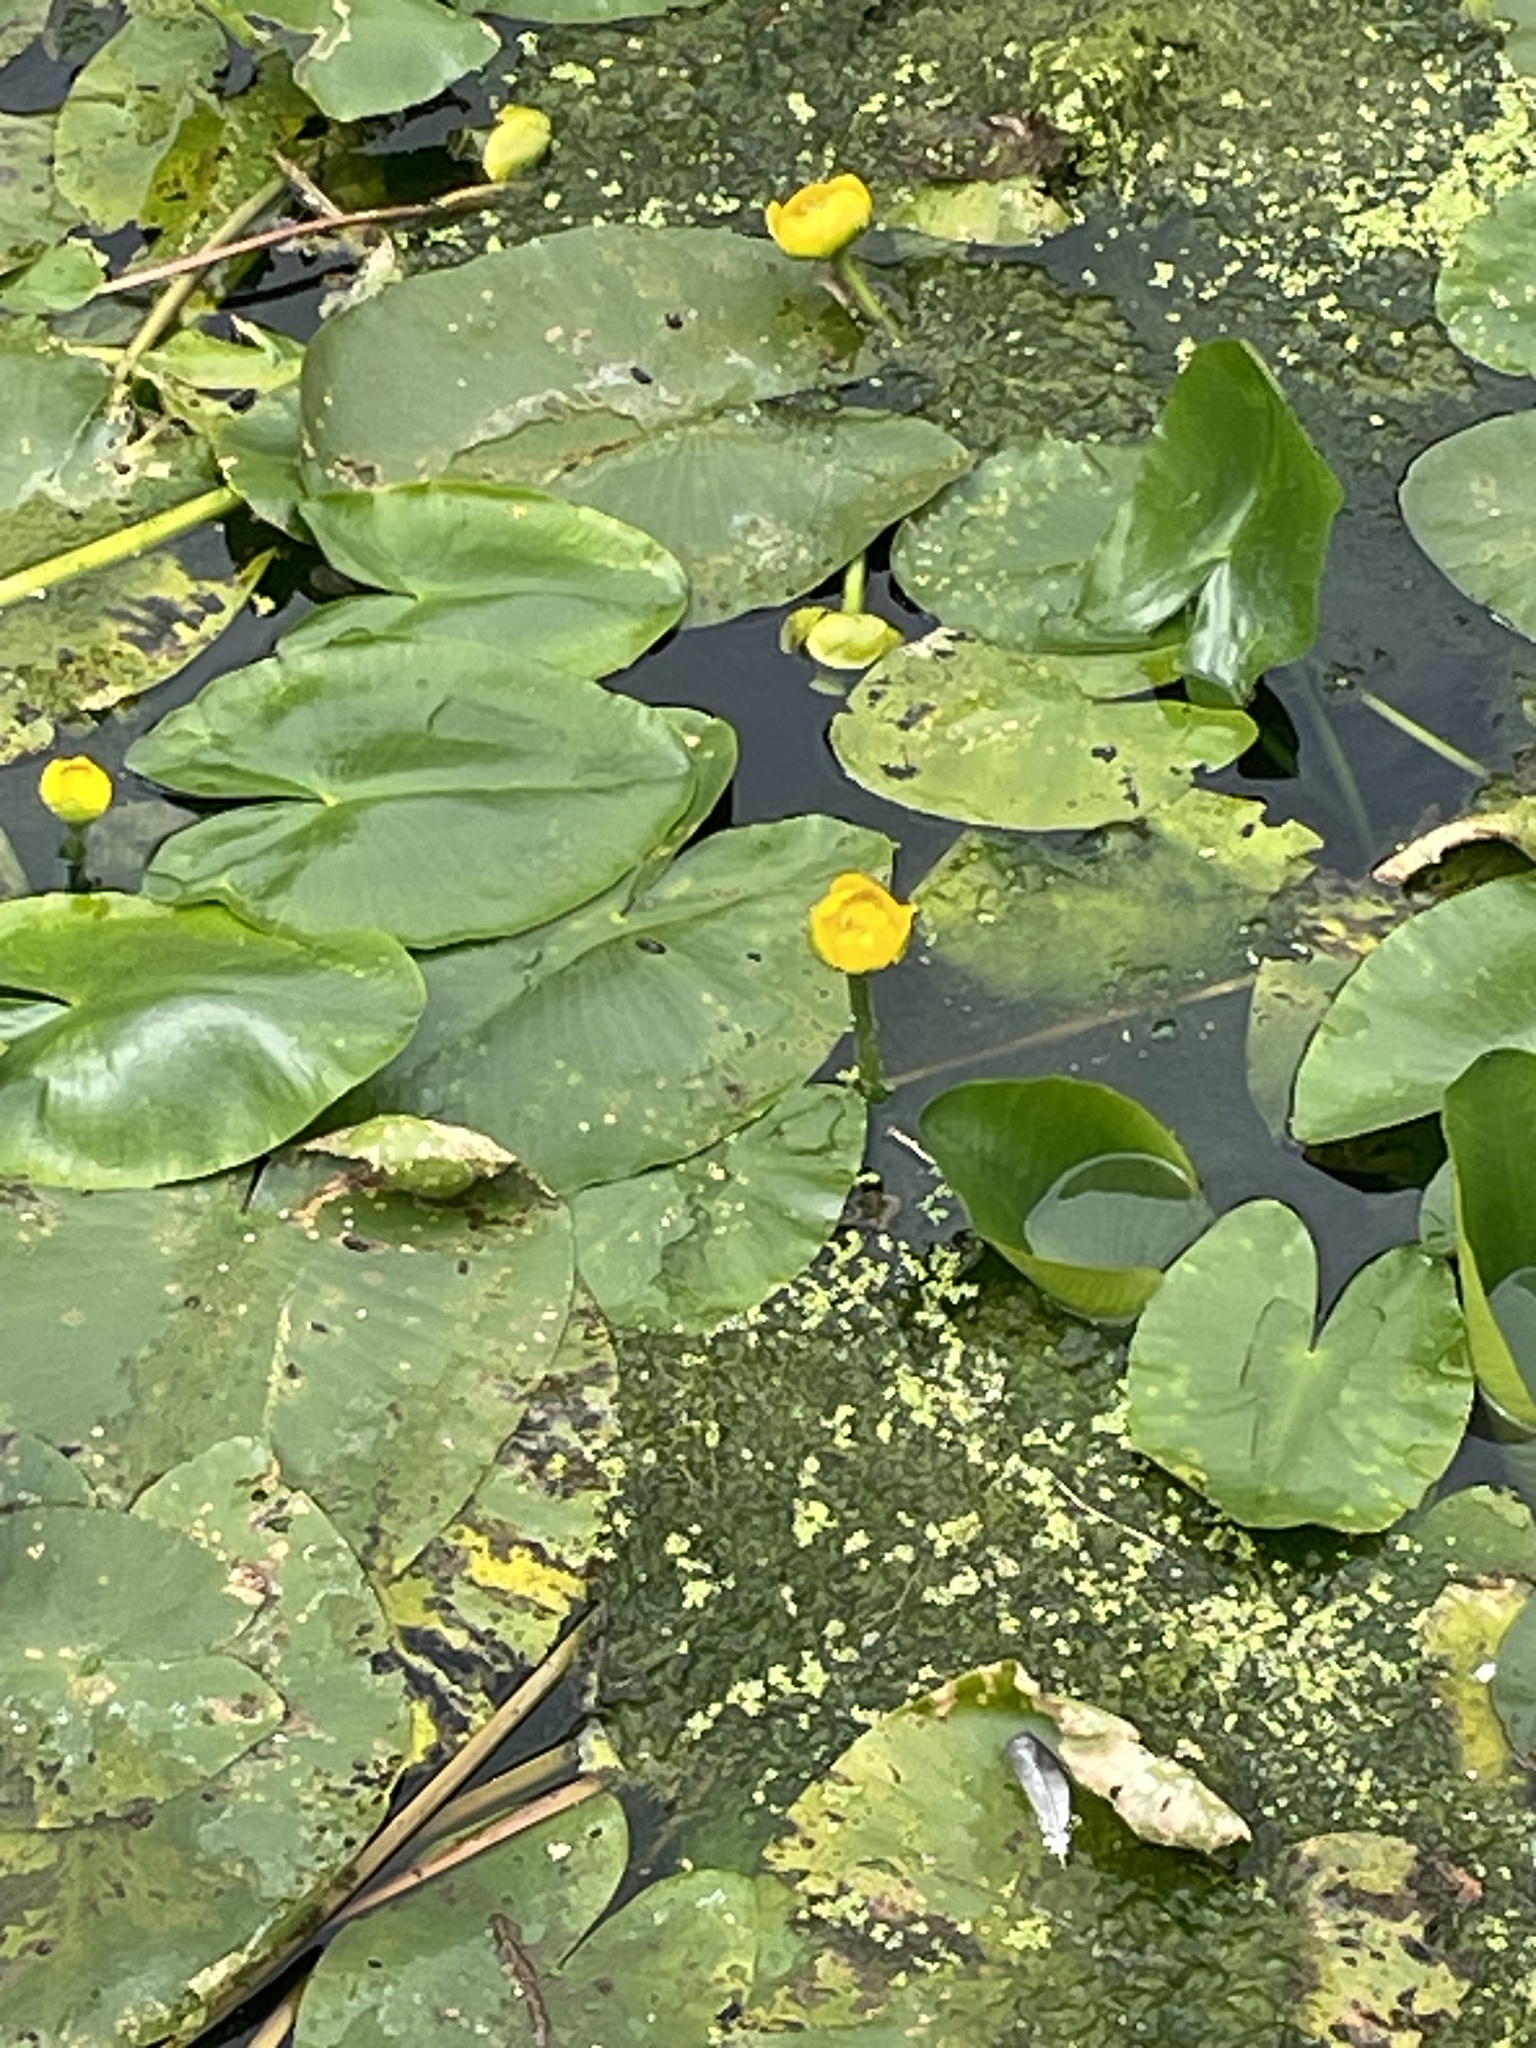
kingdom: Plantae
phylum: Tracheophyta
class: Magnoliopsida
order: Nymphaeales
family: Nymphaeaceae
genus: Nuphar
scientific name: Nuphar lutea
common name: Yellow water-lily
